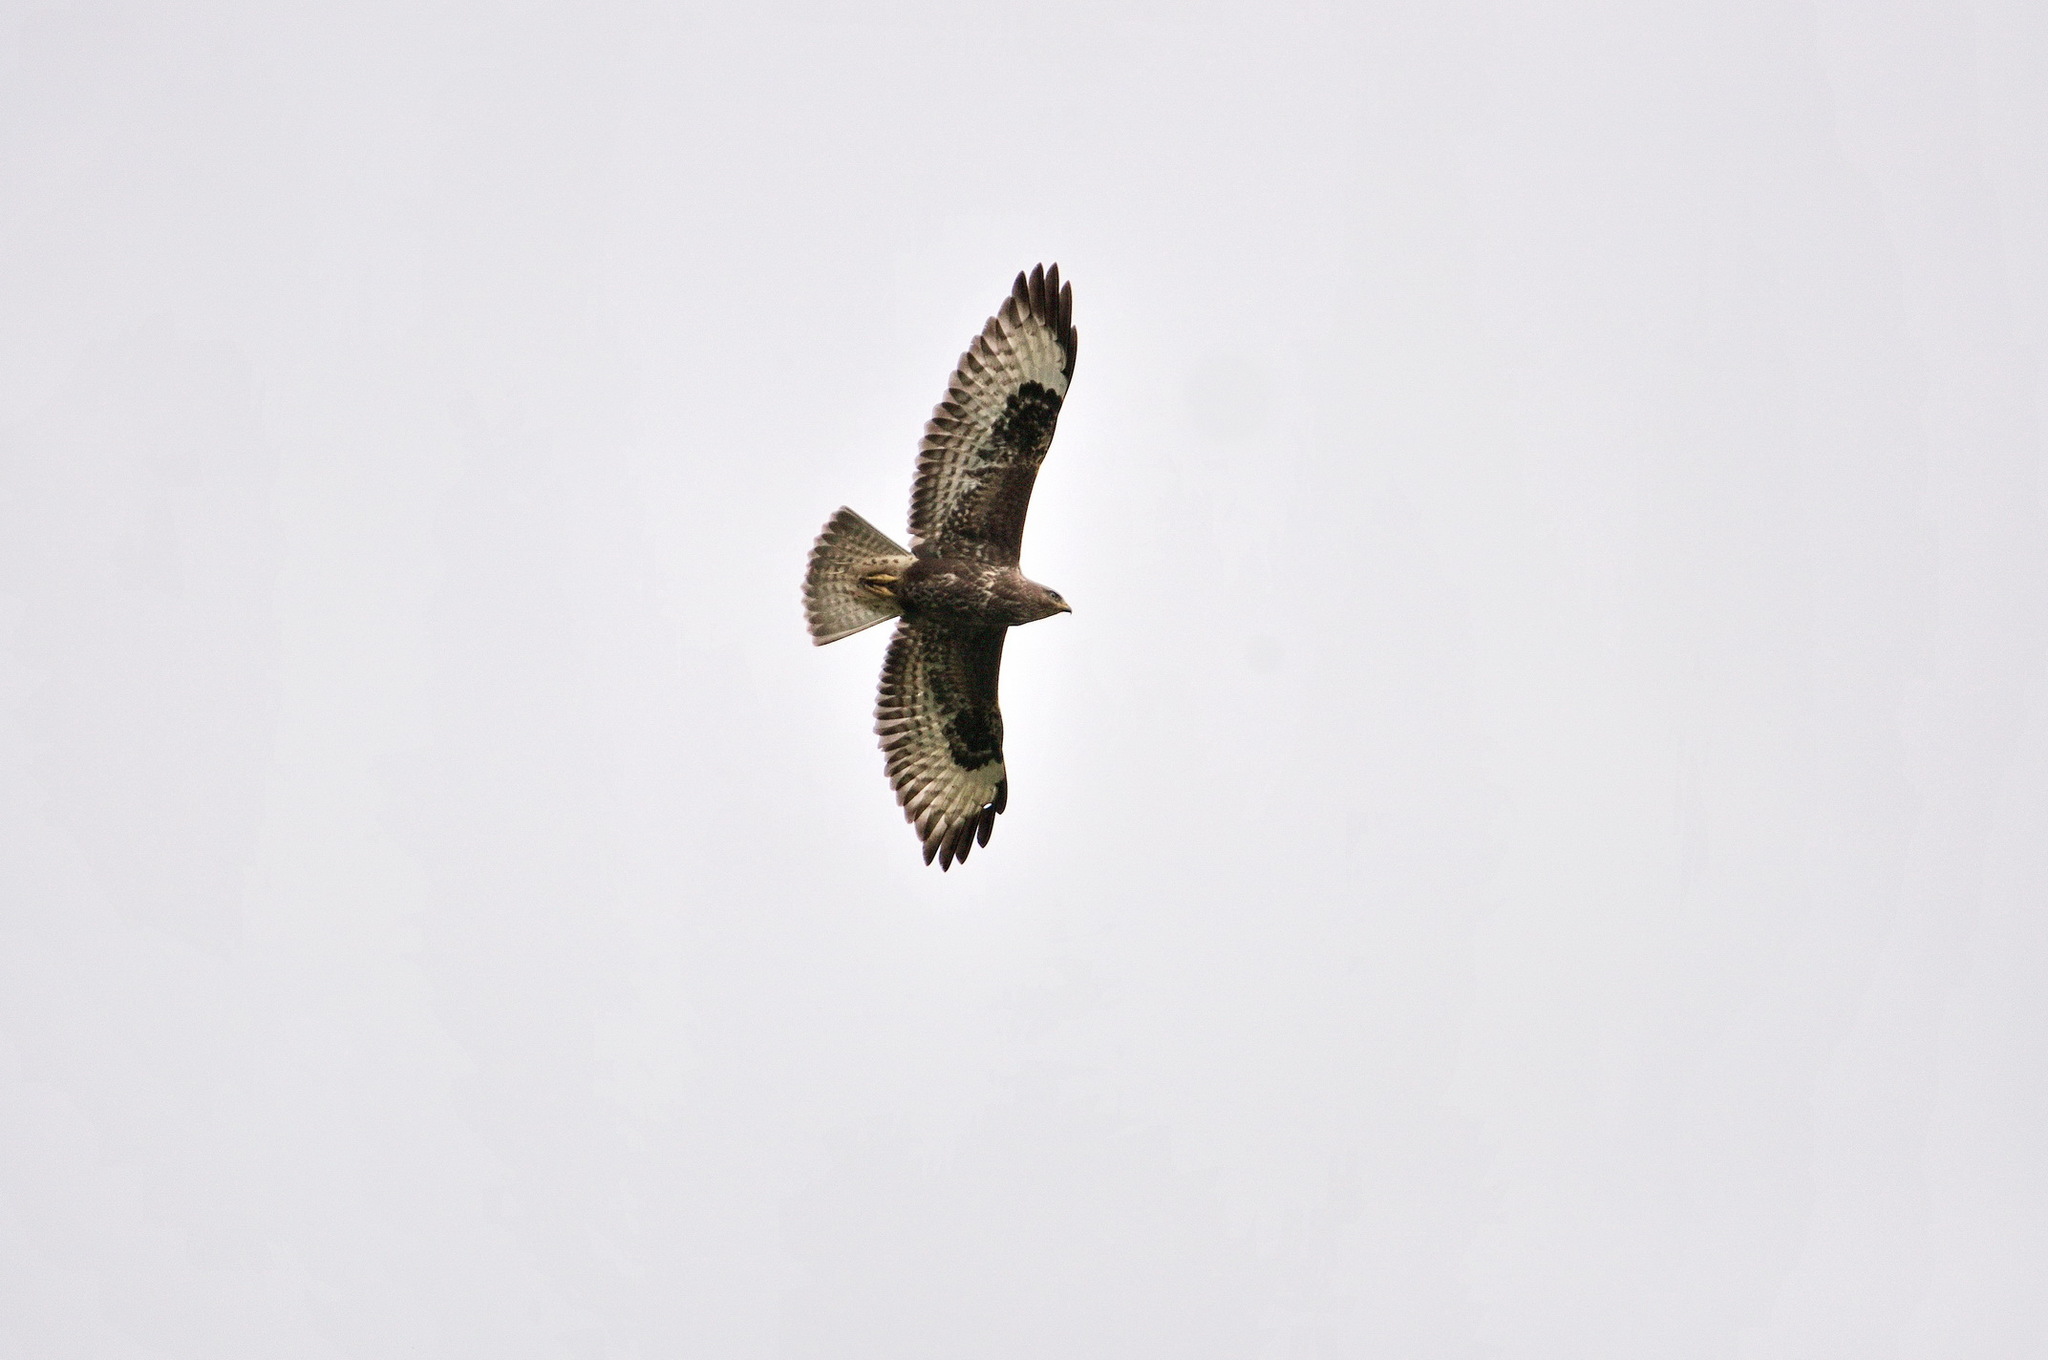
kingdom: Animalia
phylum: Chordata
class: Aves
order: Accipitriformes
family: Accipitridae
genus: Buteo
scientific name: Buteo buteo
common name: Common buzzard
